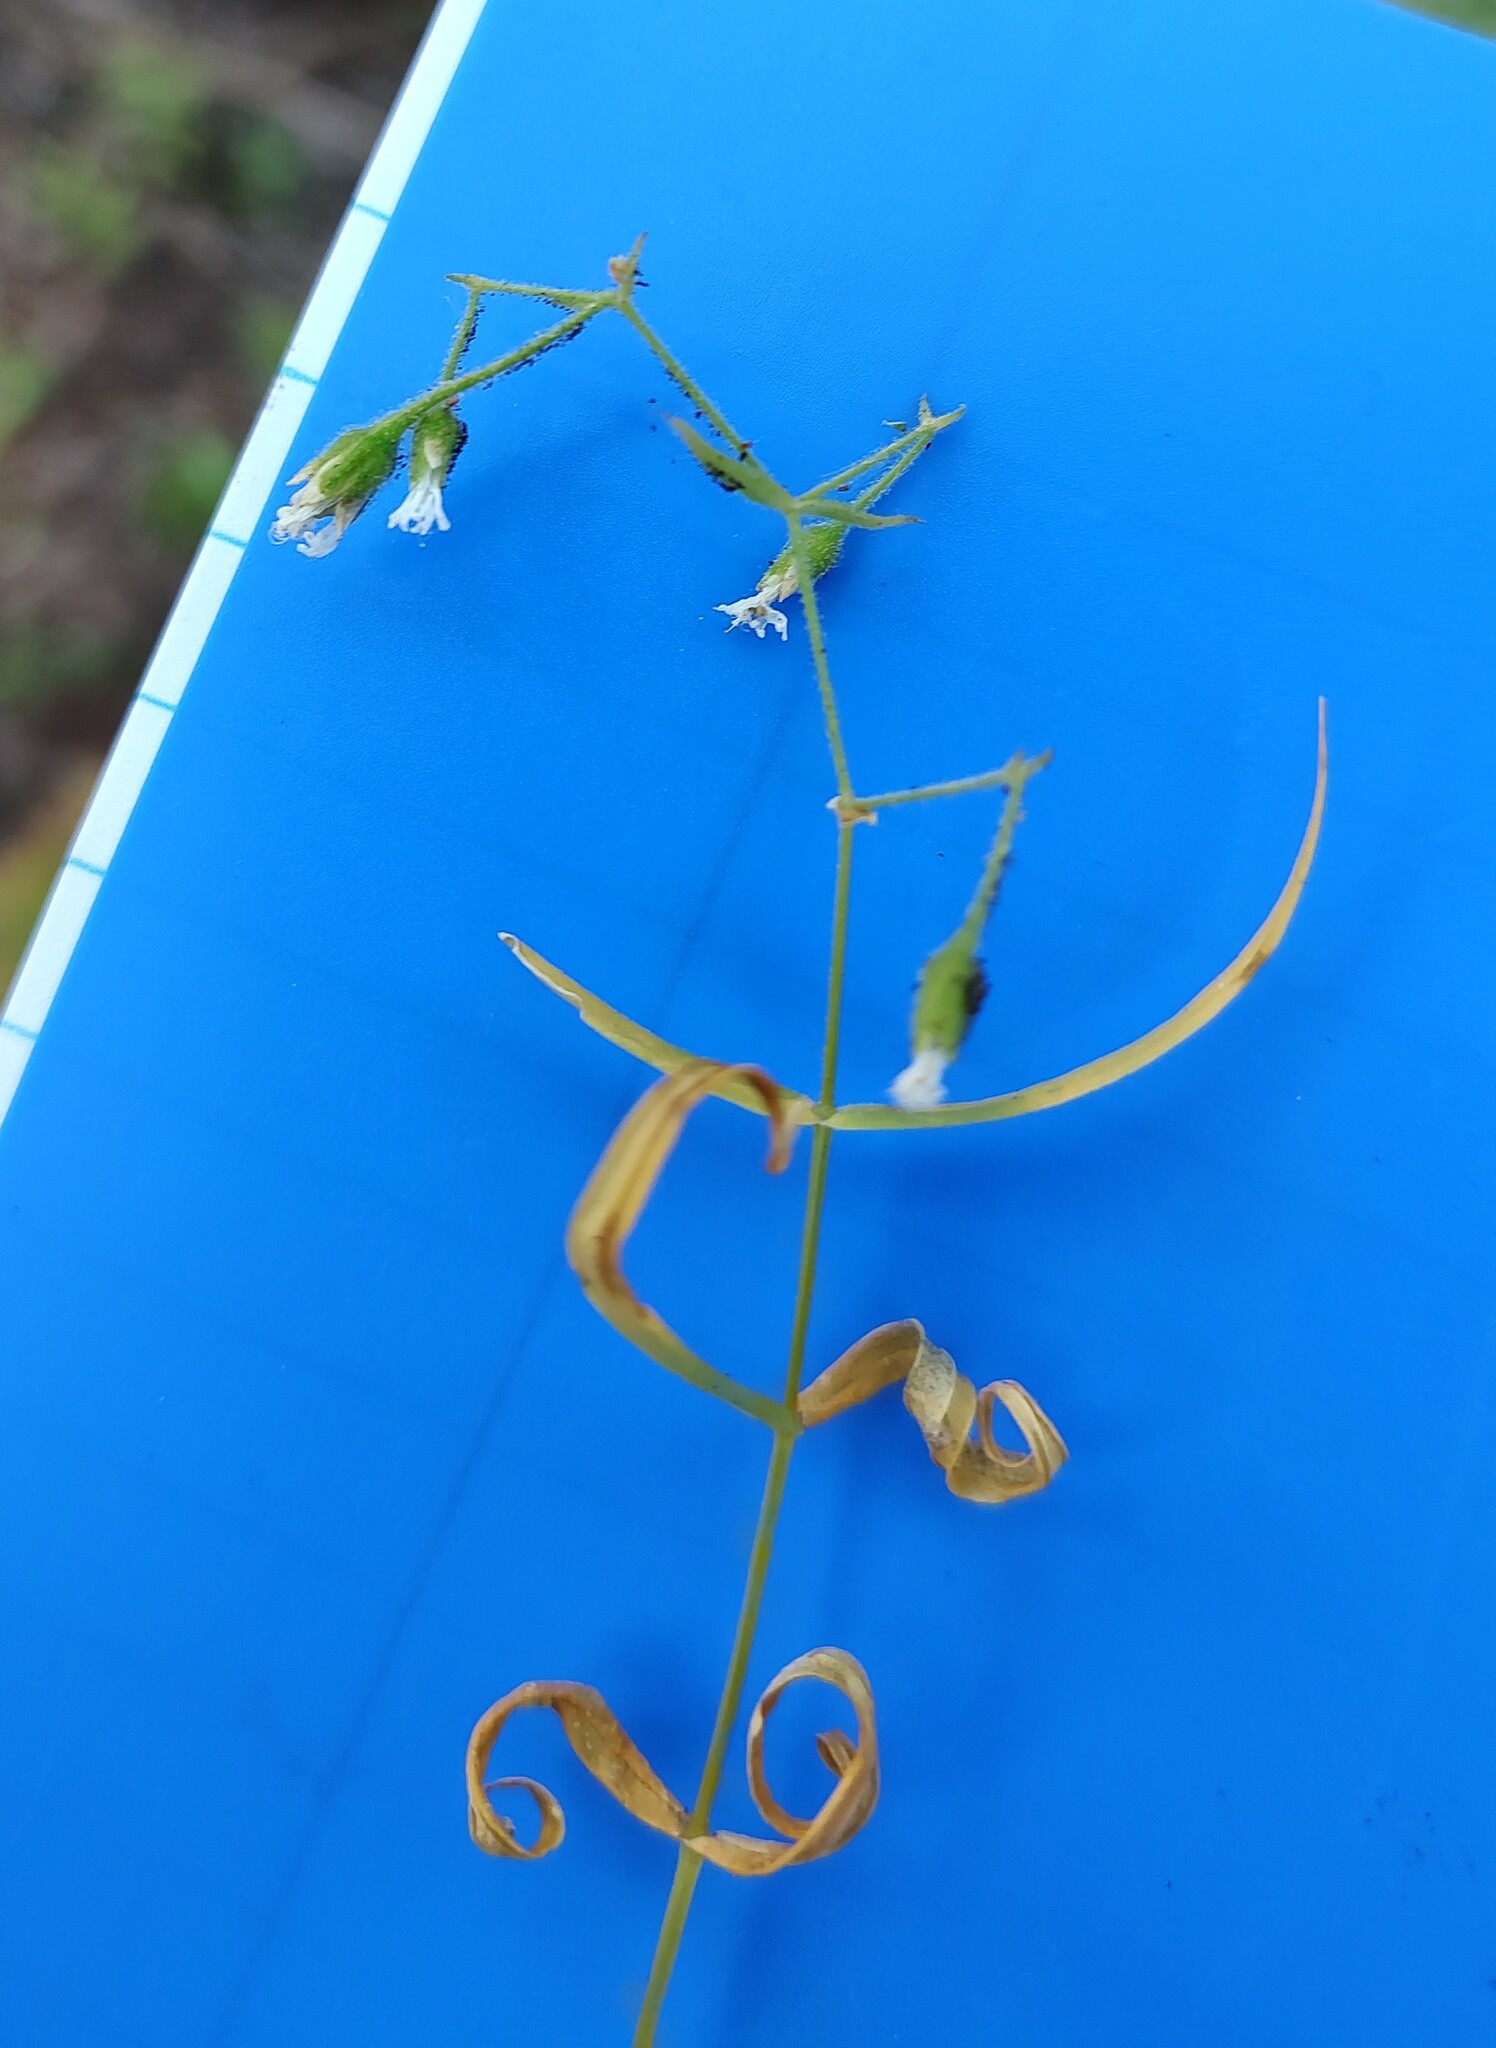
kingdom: Plantae
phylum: Tracheophyta
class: Magnoliopsida
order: Caryophyllales
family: Caryophyllaceae
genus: Schizotechium
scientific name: Schizotechium jamesianum
